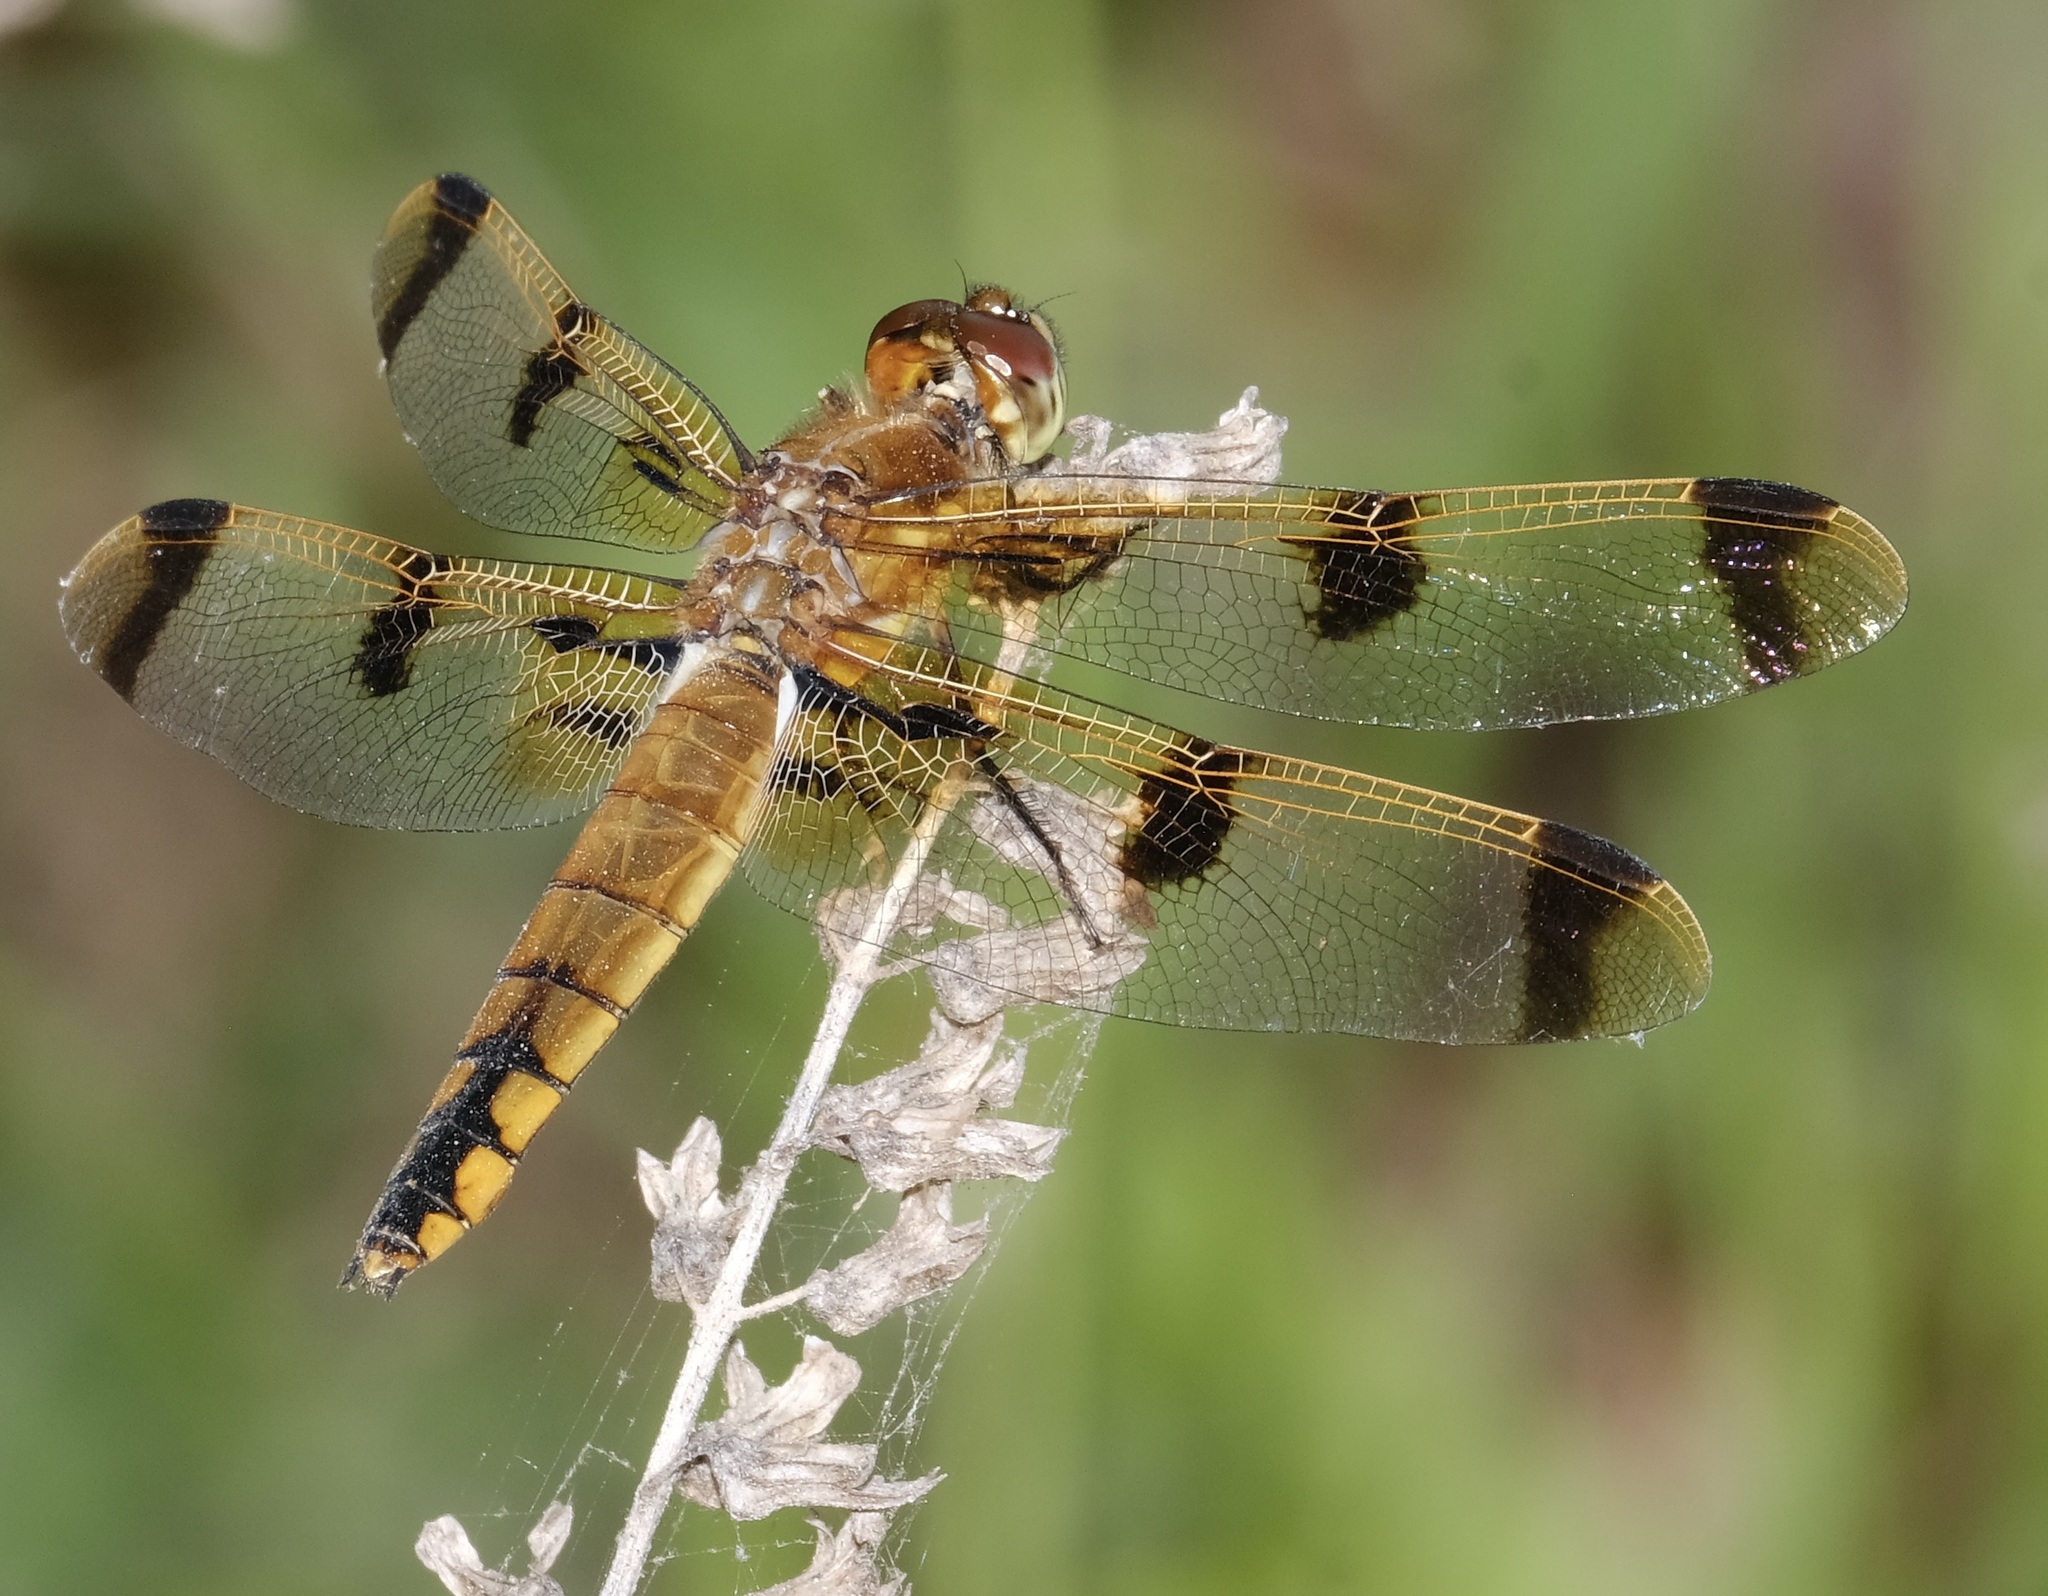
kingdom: Animalia
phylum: Arthropoda
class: Insecta
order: Odonata
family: Libellulidae
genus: Libellula
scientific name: Libellula semifasciata
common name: Painted skimmer
